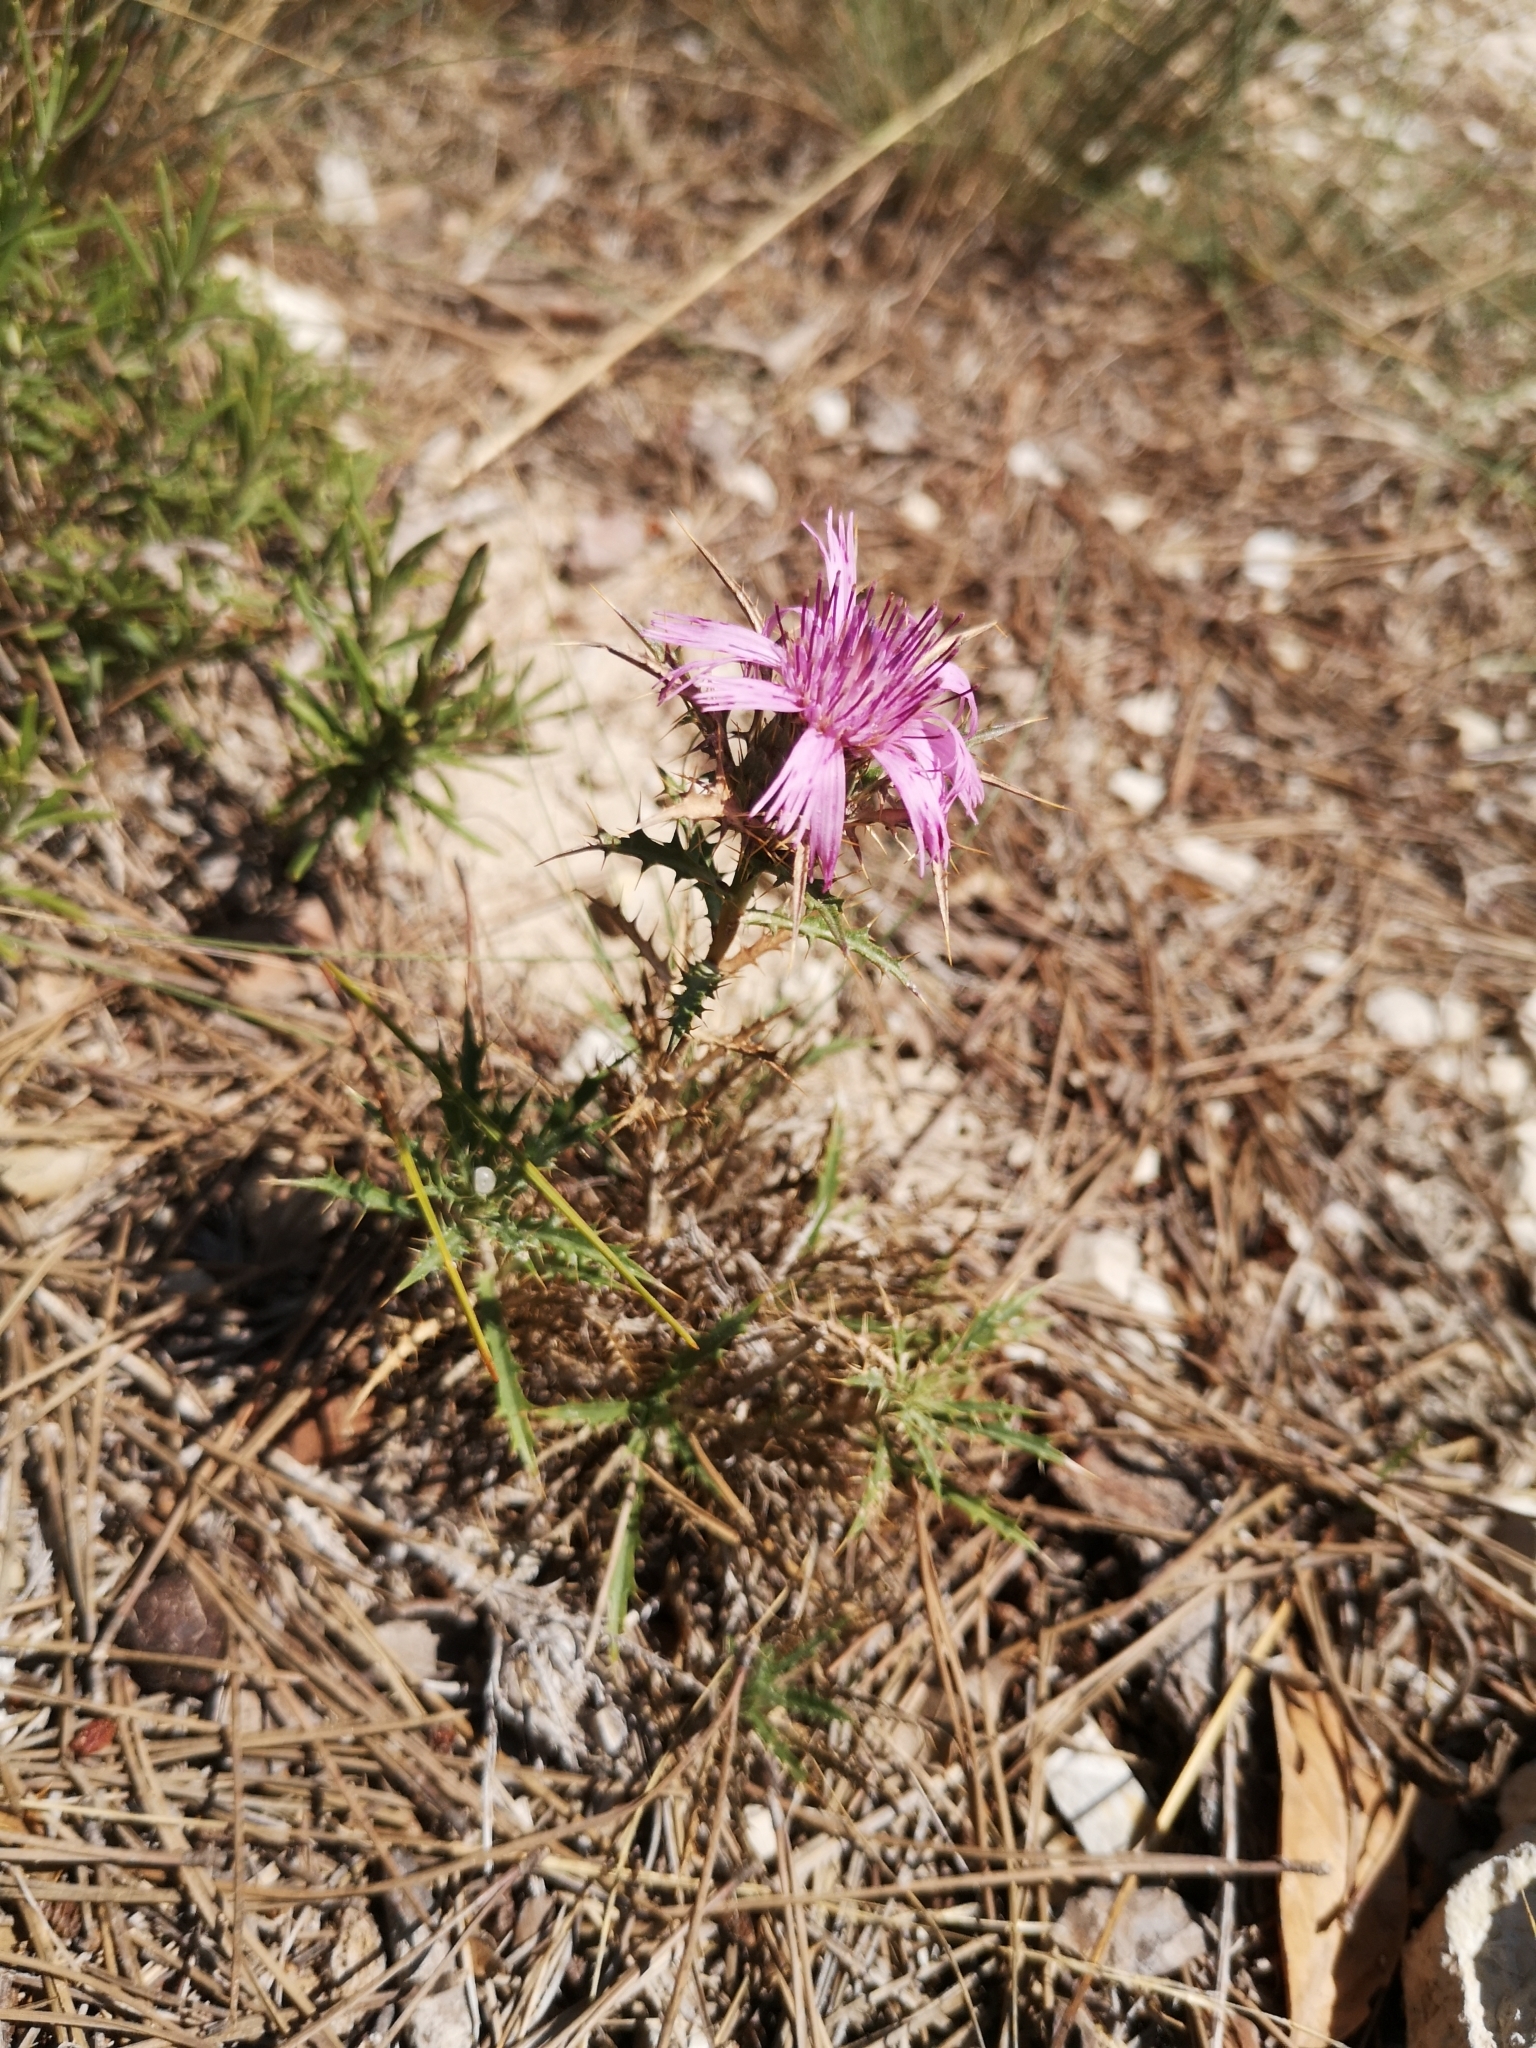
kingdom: Plantae
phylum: Tracheophyta
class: Magnoliopsida
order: Asterales
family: Asteraceae
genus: Atractylis
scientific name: Atractylis humilis
